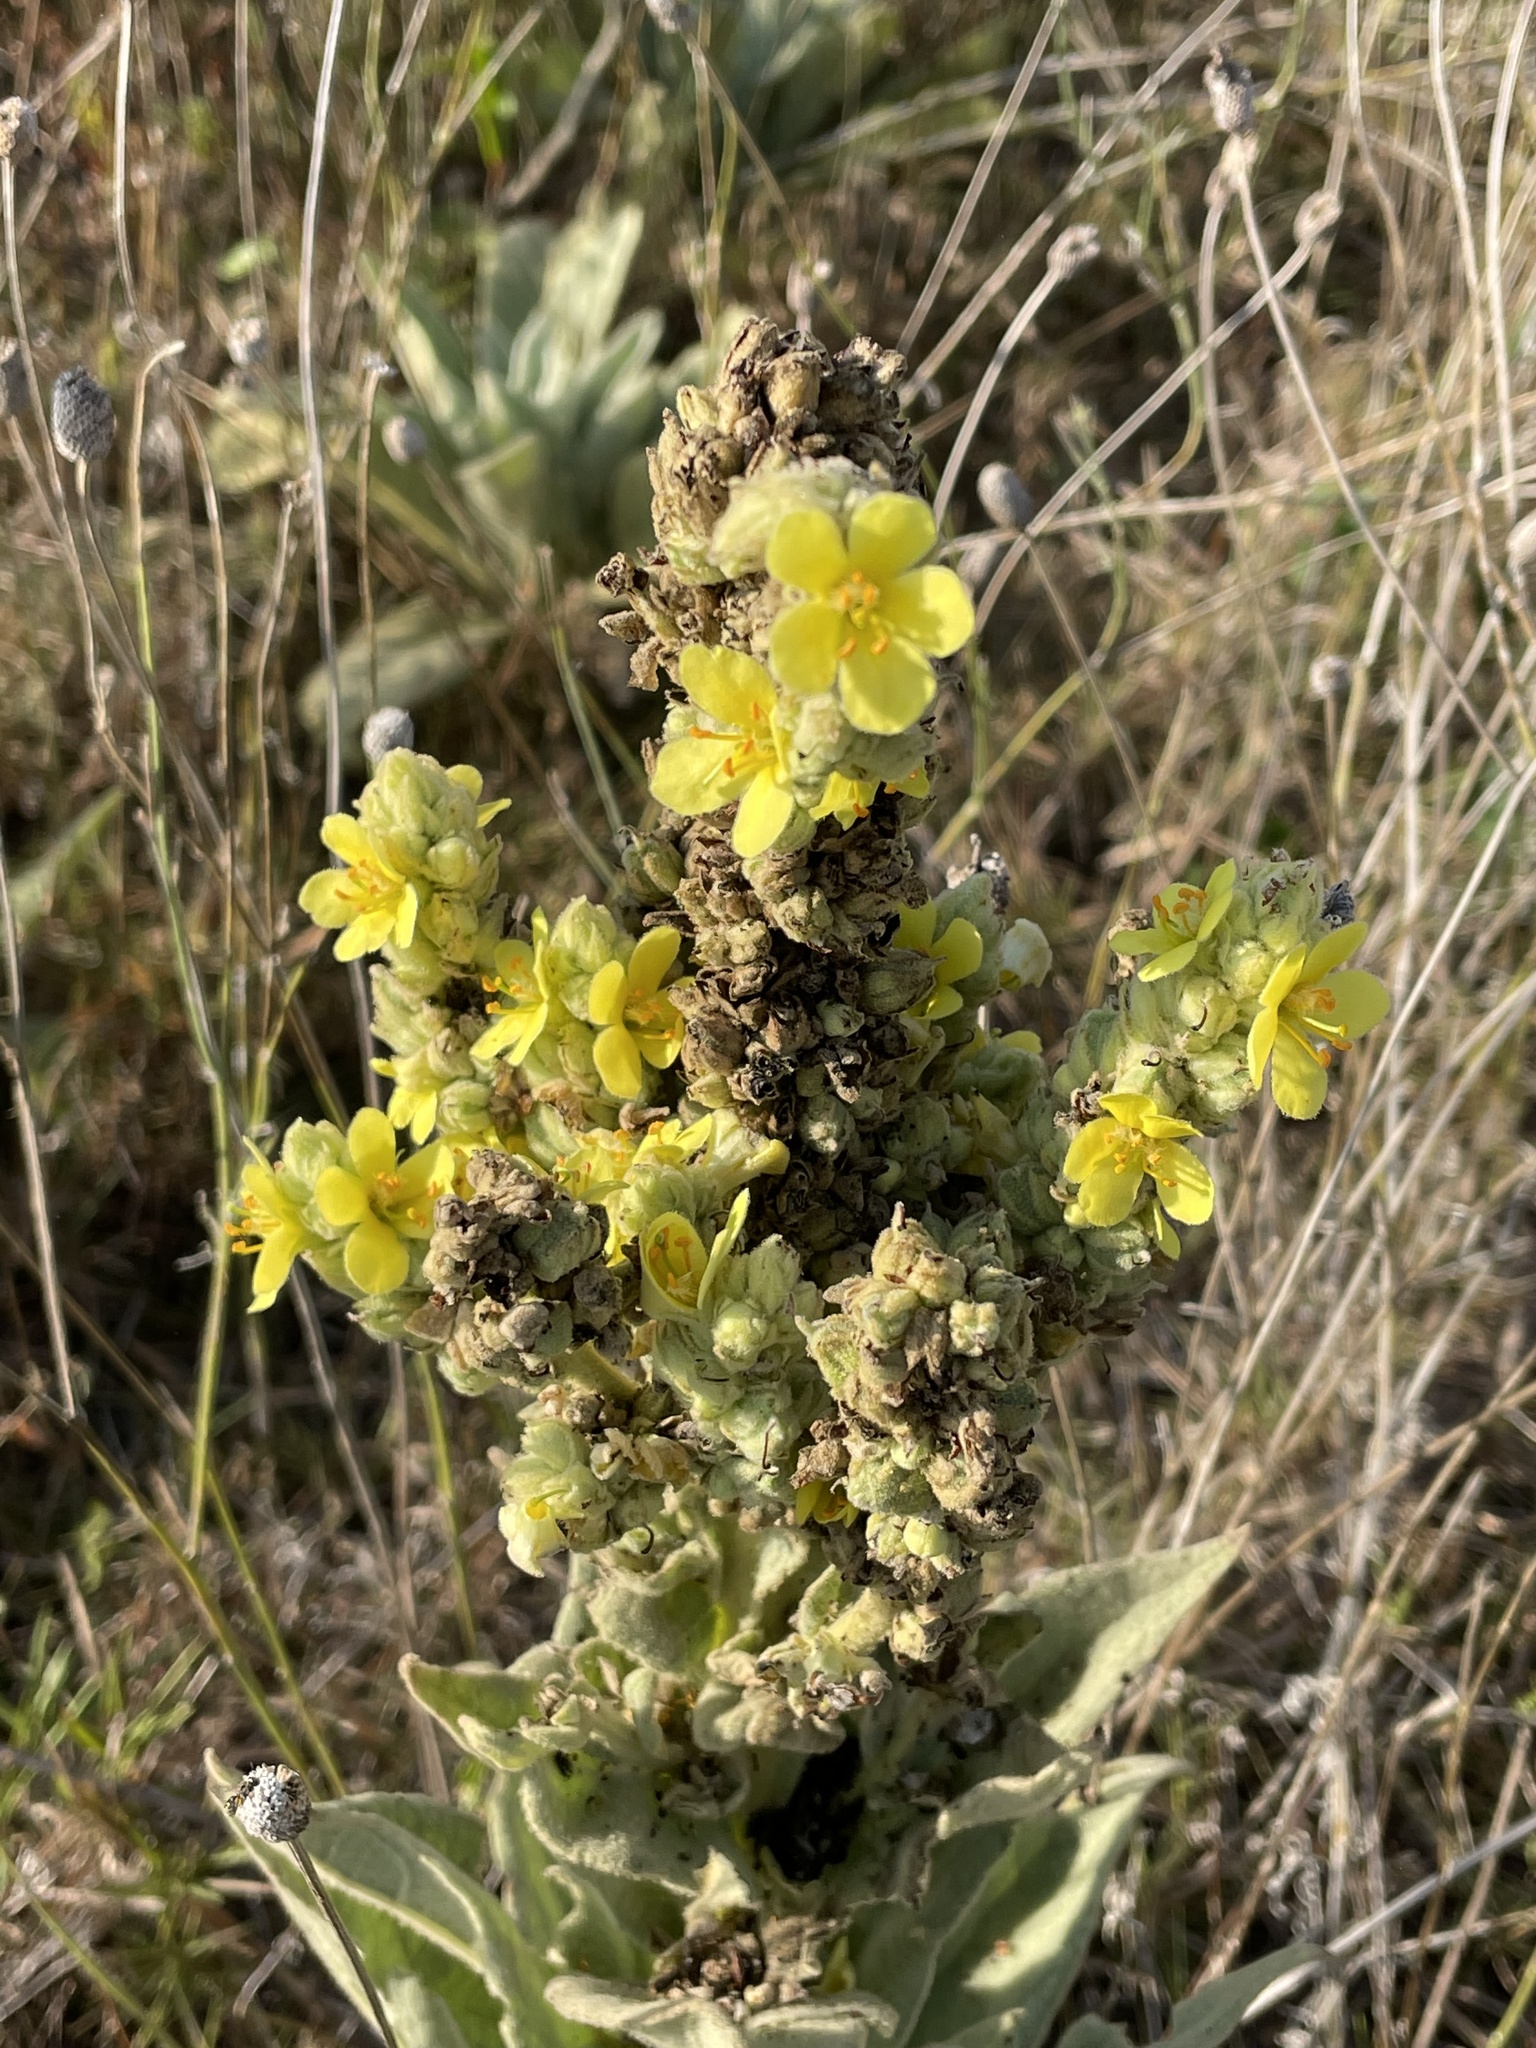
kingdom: Plantae
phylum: Tracheophyta
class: Magnoliopsida
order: Lamiales
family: Scrophulariaceae
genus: Verbascum
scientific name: Verbascum thapsus
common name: Common mullein
